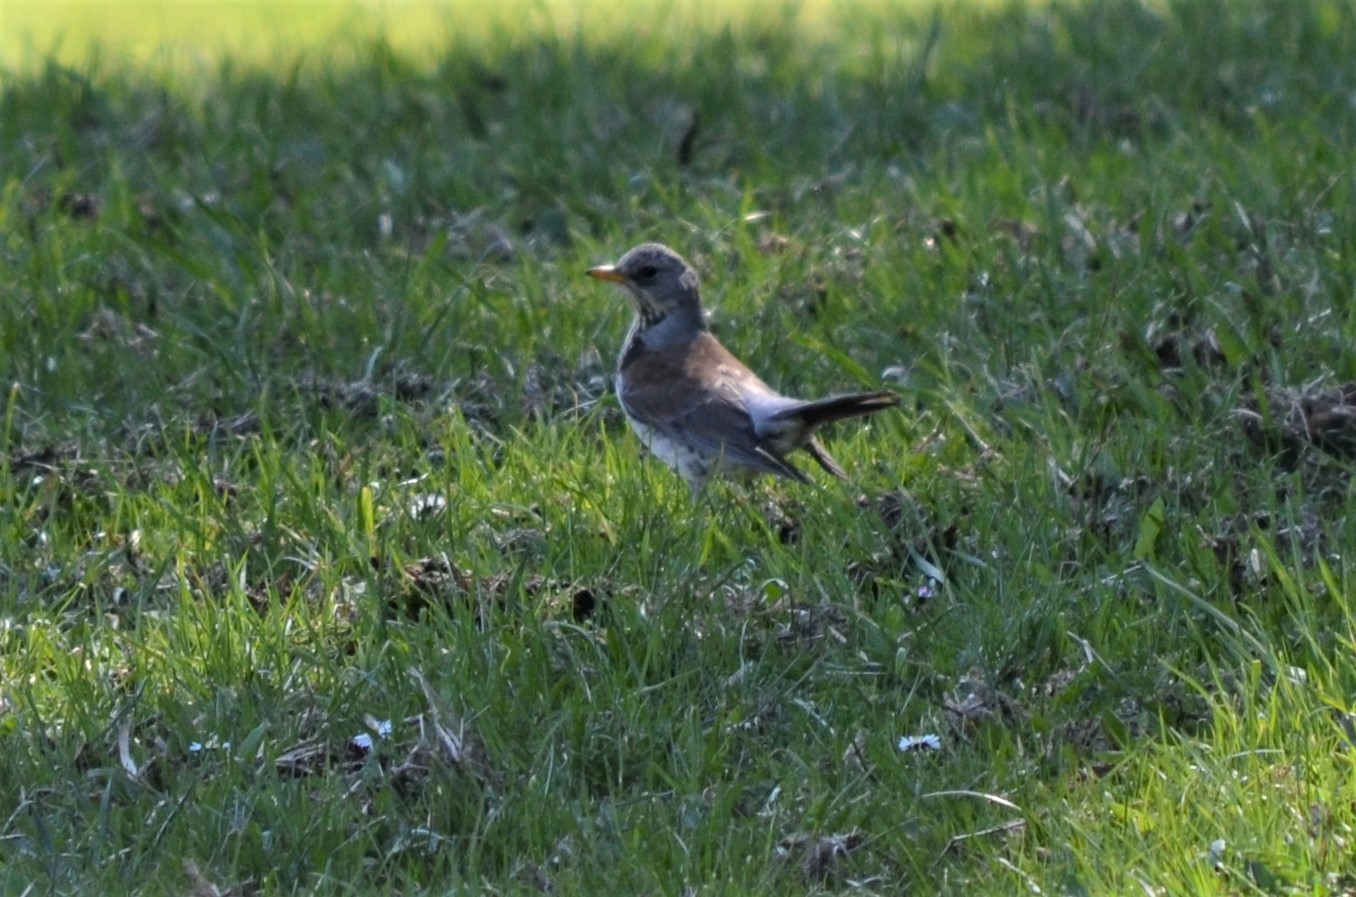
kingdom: Animalia
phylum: Chordata
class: Aves
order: Passeriformes
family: Turdidae
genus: Turdus
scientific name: Turdus pilaris
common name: Fieldfare
